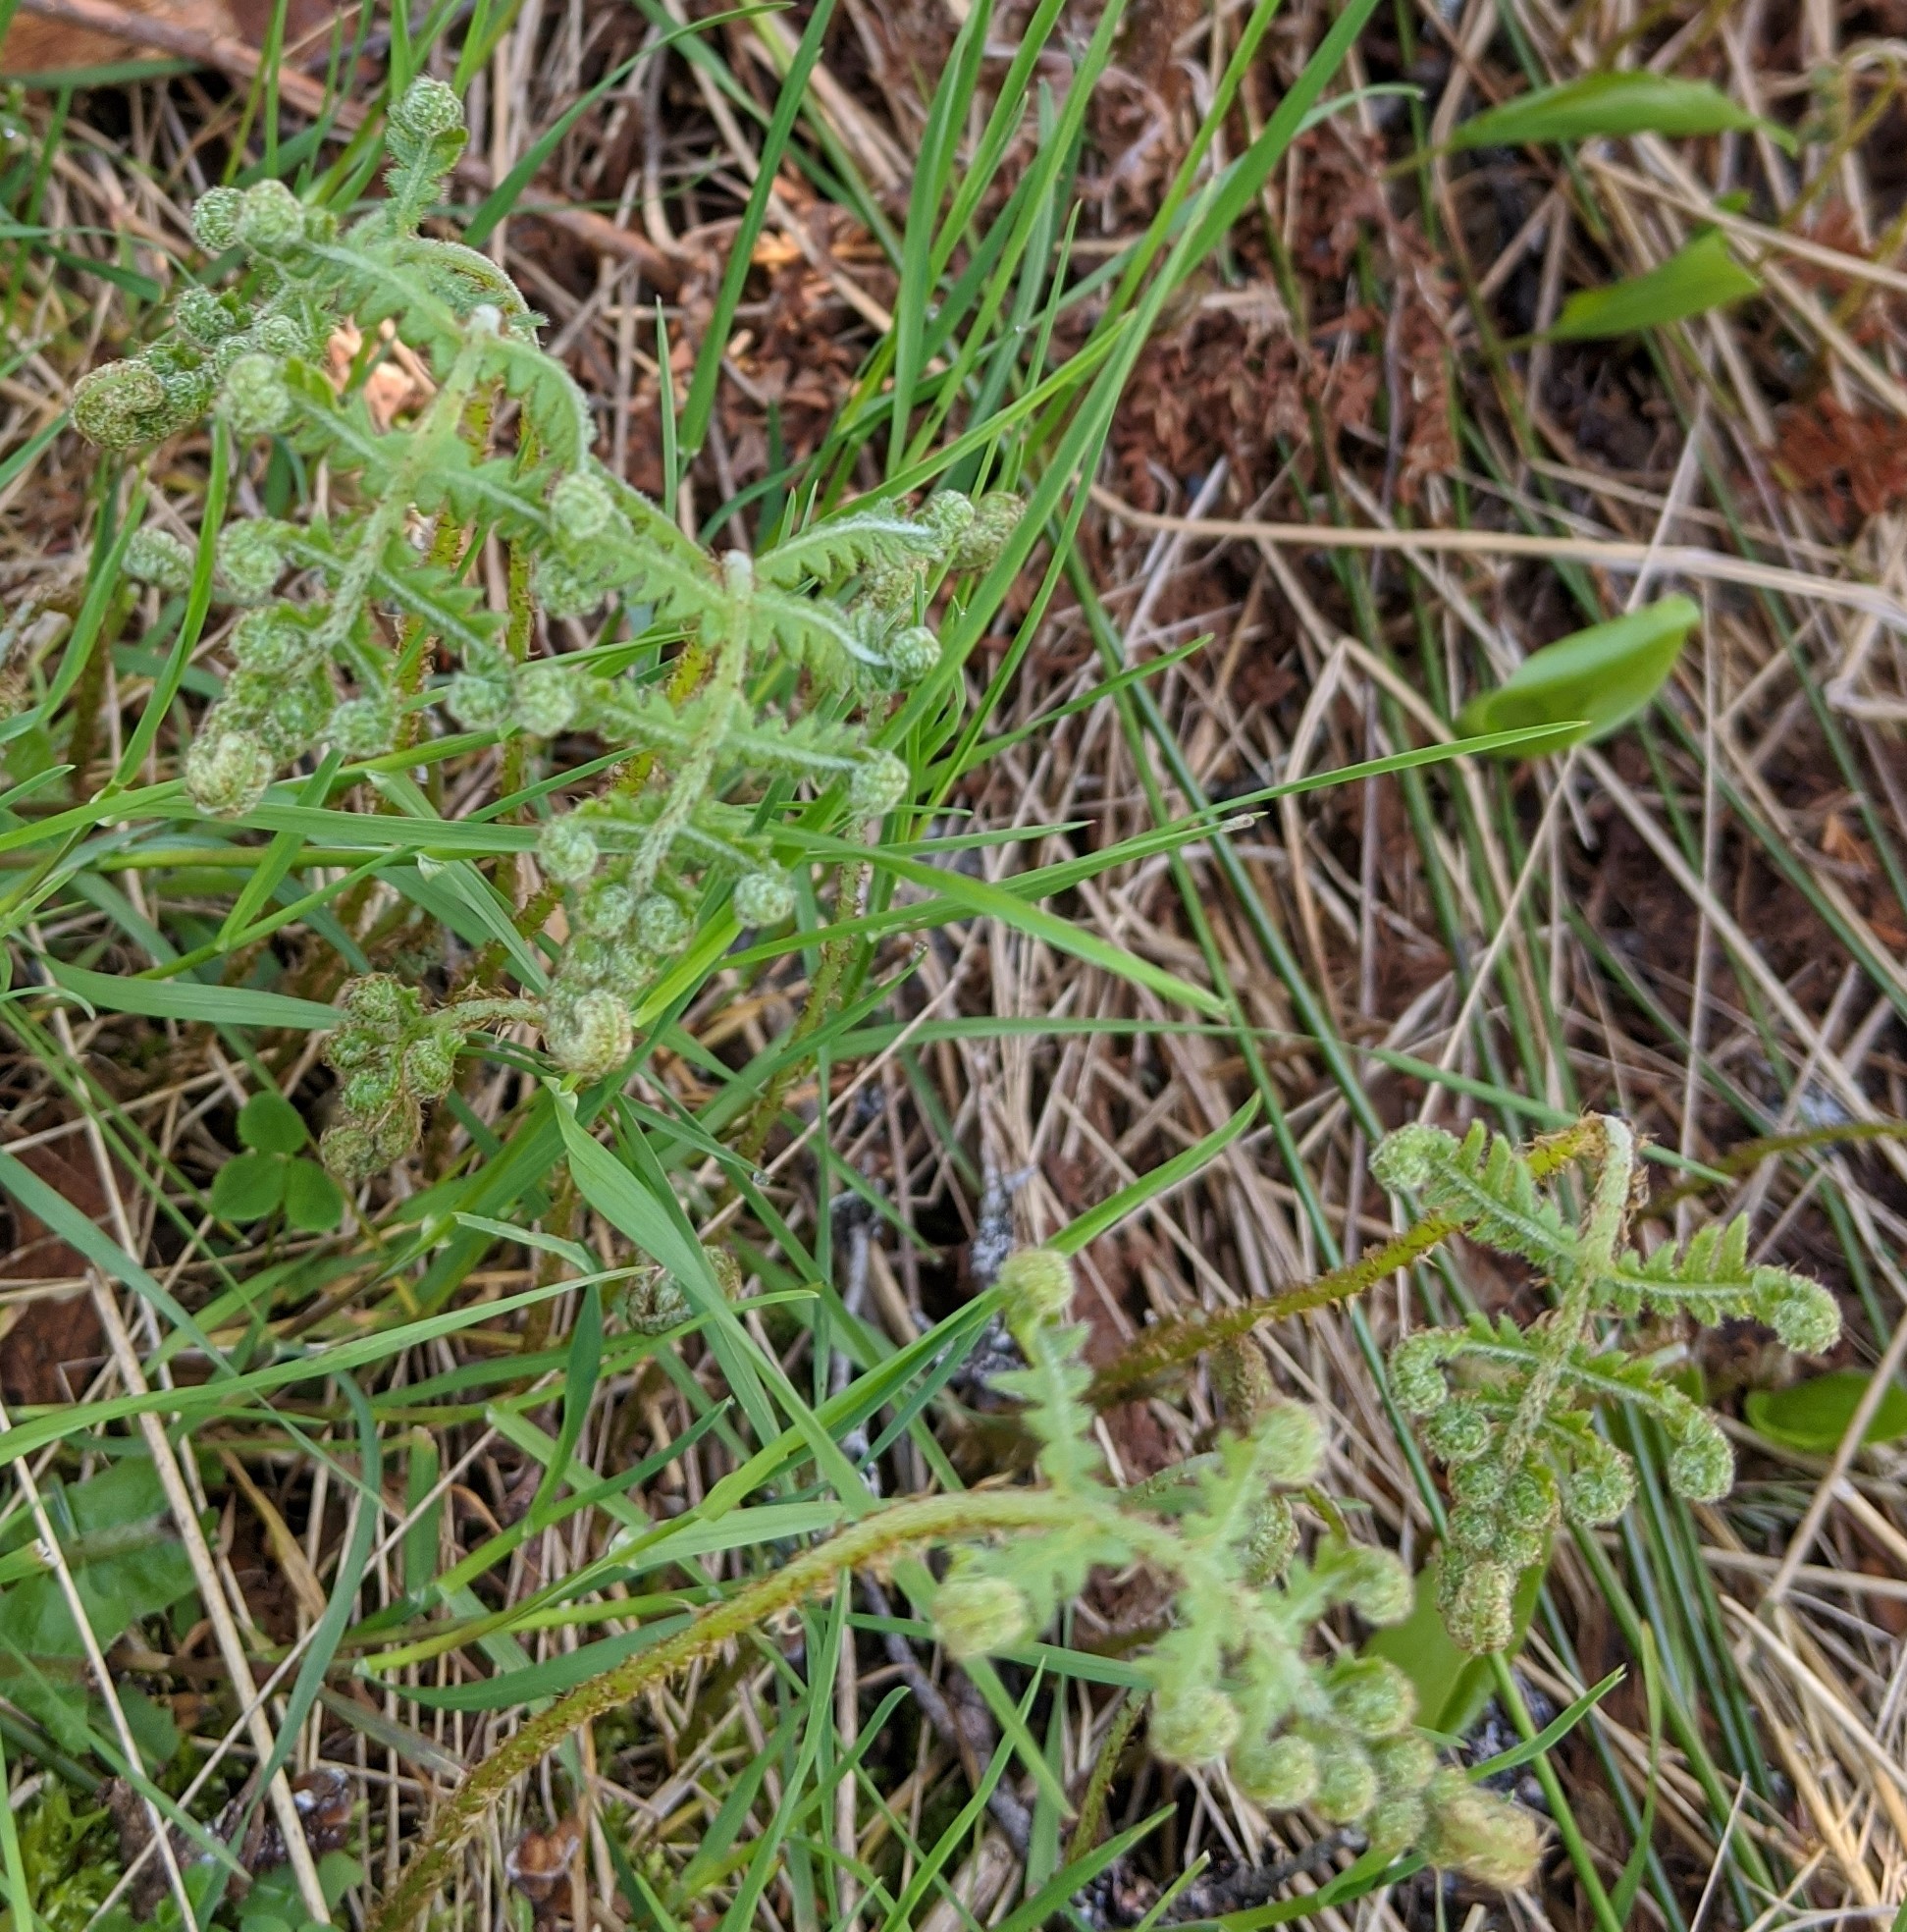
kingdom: Plantae
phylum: Tracheophyta
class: Polypodiopsida
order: Polypodiales
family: Thelypteridaceae
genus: Phegopteris
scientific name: Phegopteris connectilis
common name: Beech fern
